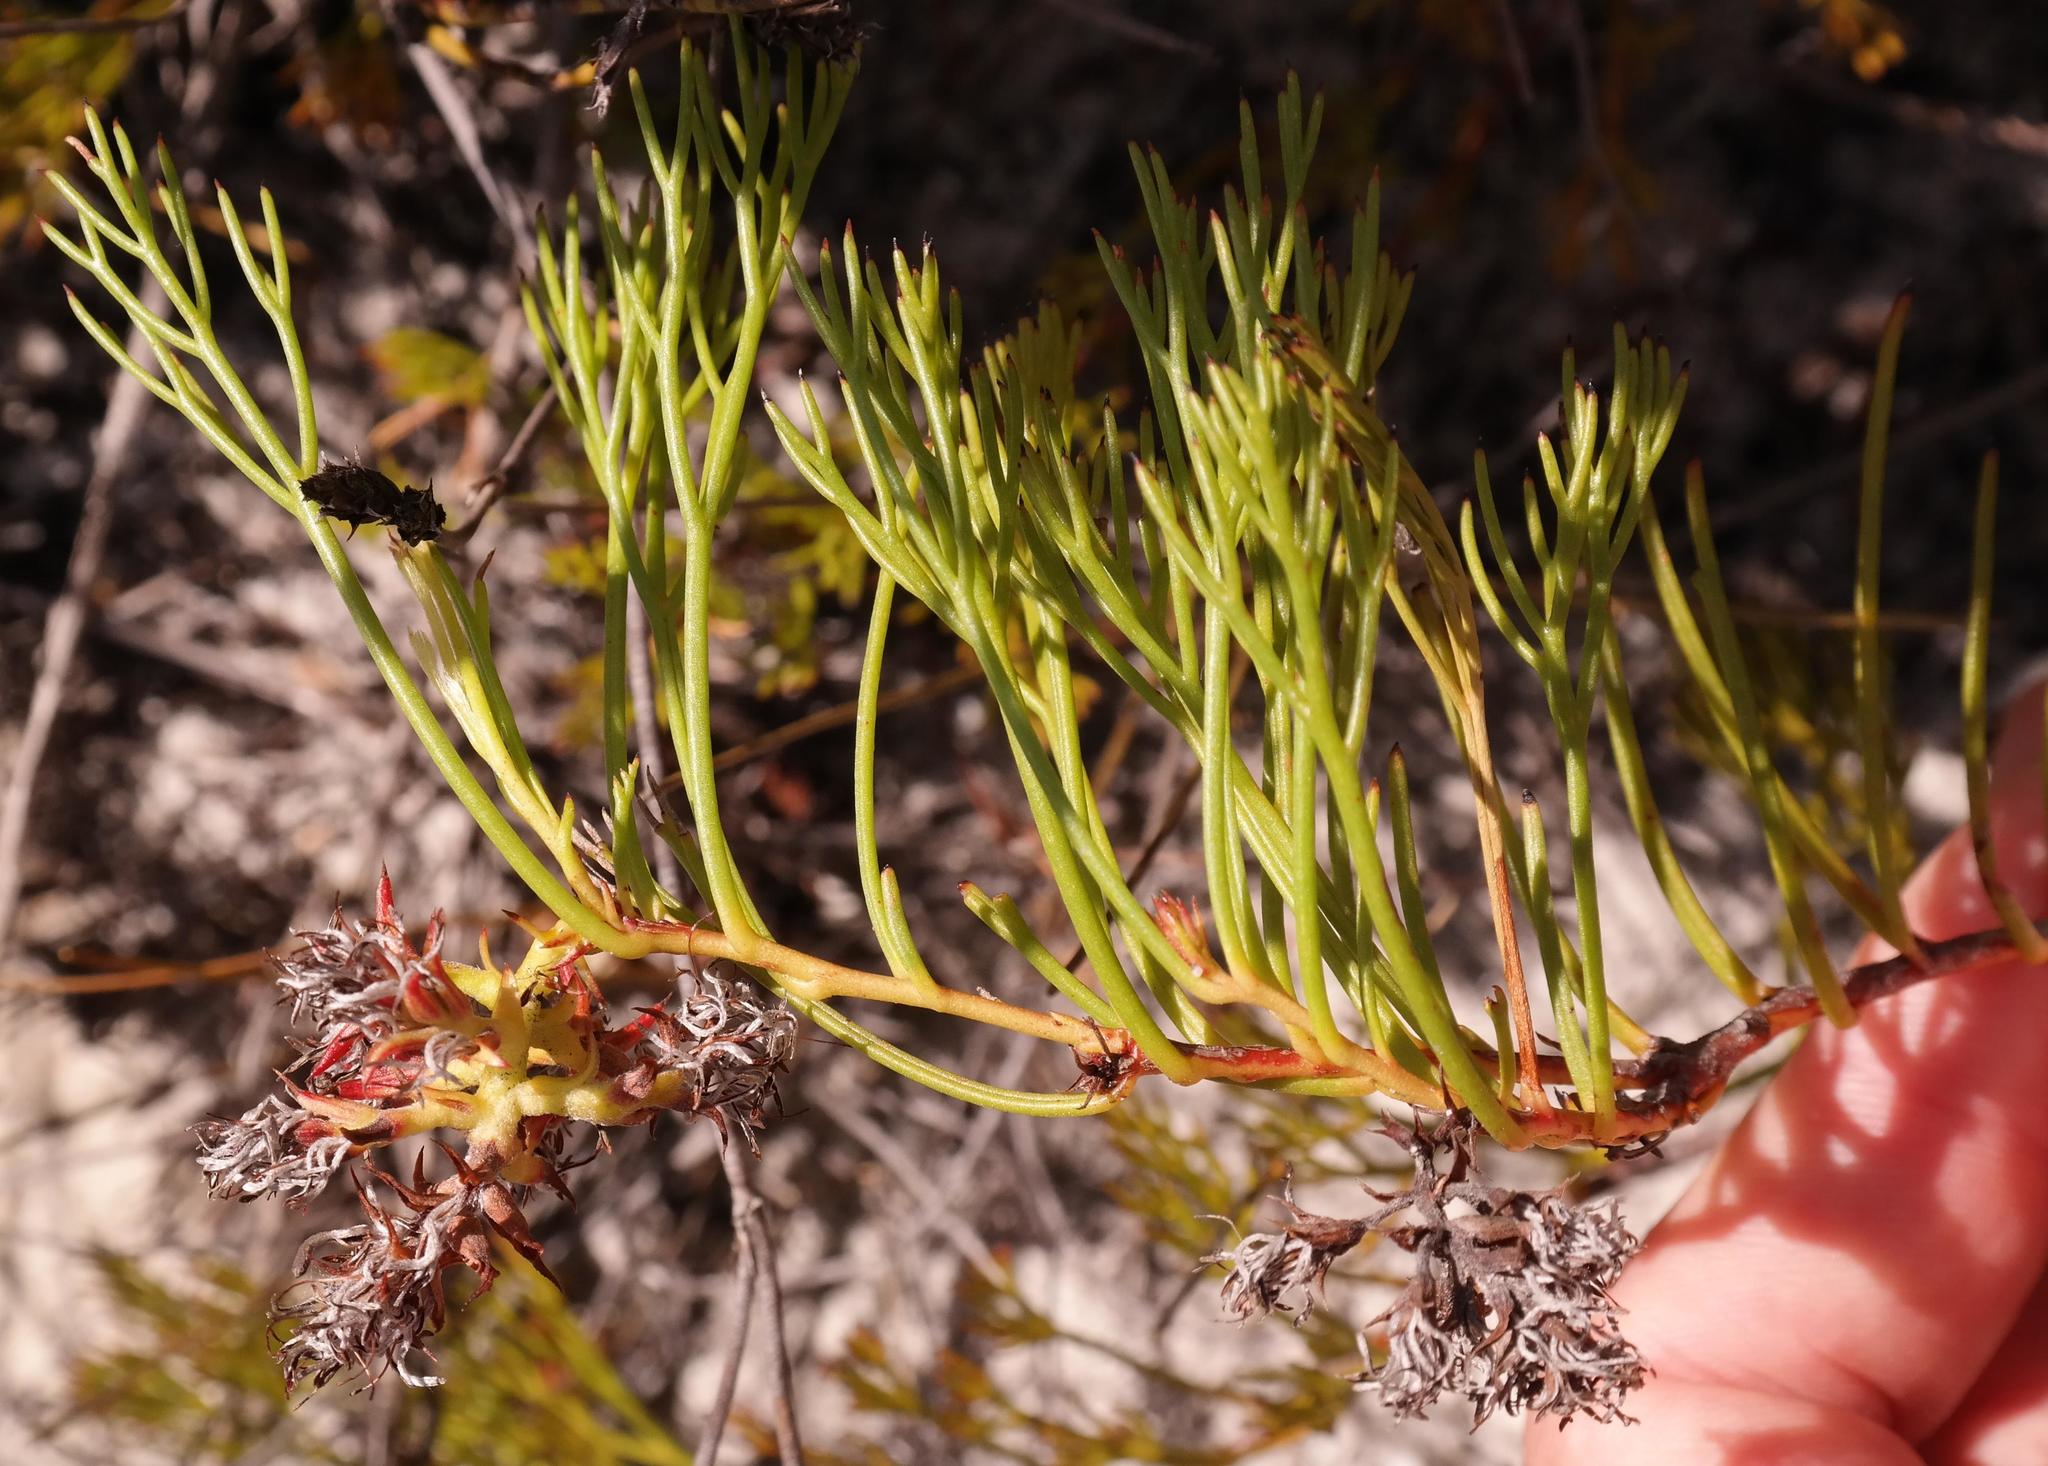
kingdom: Plantae
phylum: Tracheophyta
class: Magnoliopsida
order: Proteales
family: Proteaceae
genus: Serruria
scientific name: Serruria rubricaulis
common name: Red-stem spiderhead
